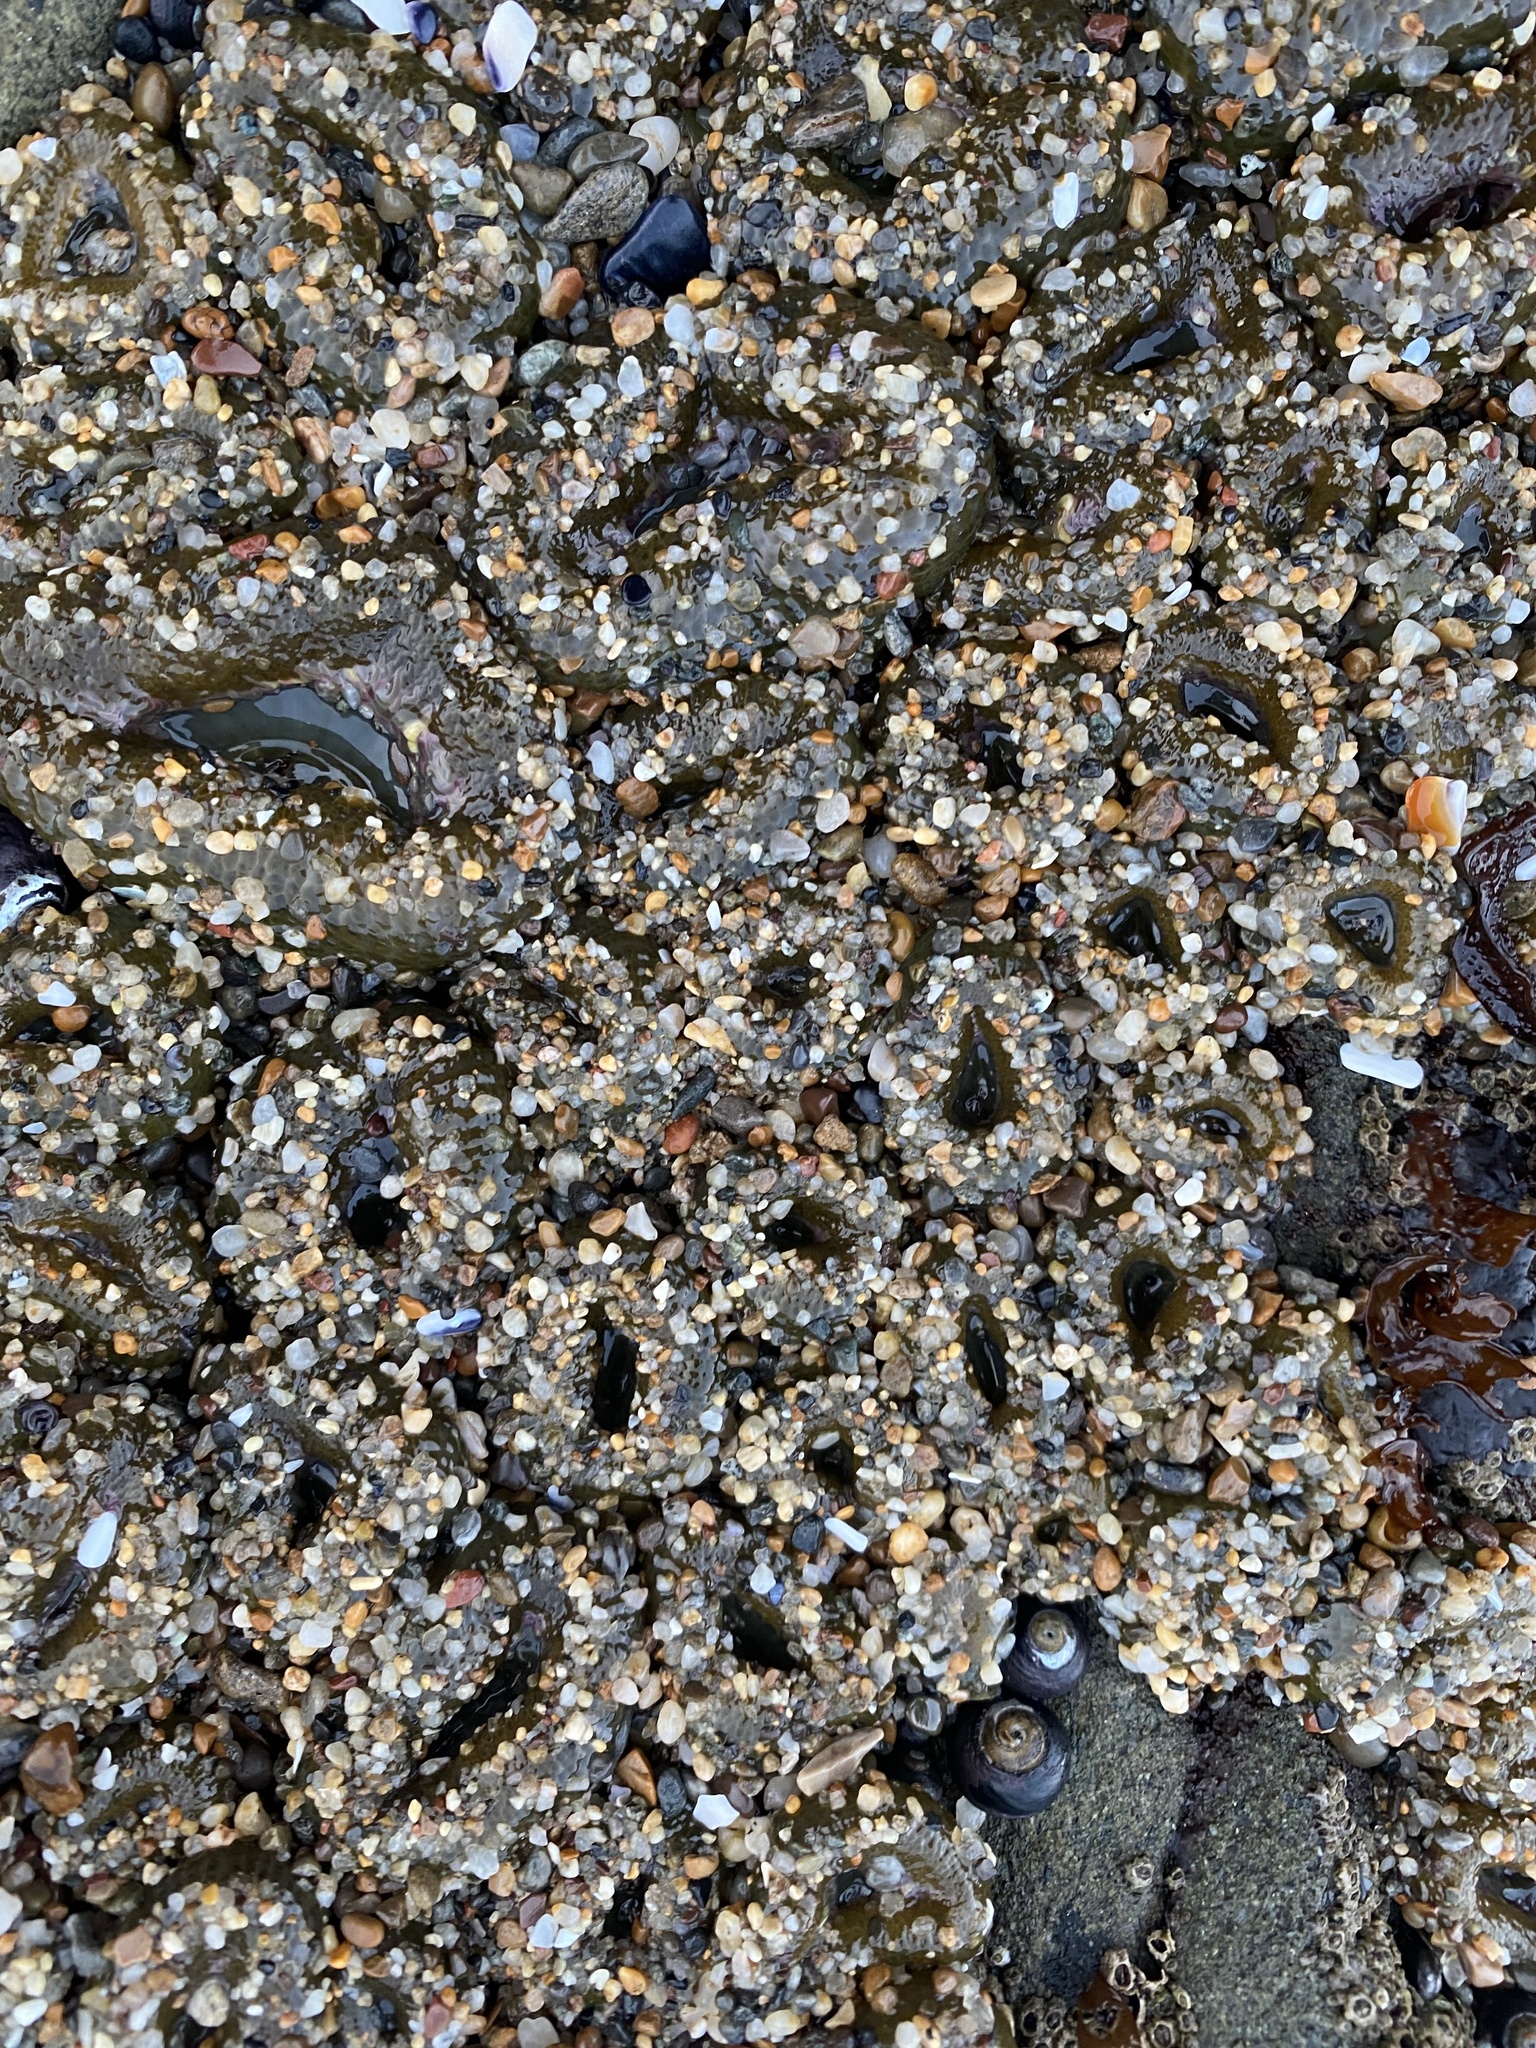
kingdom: Animalia
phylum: Cnidaria
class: Anthozoa
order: Actiniaria
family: Actiniidae
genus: Anthopleura
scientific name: Anthopleura elegantissima
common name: Clonal anemone
